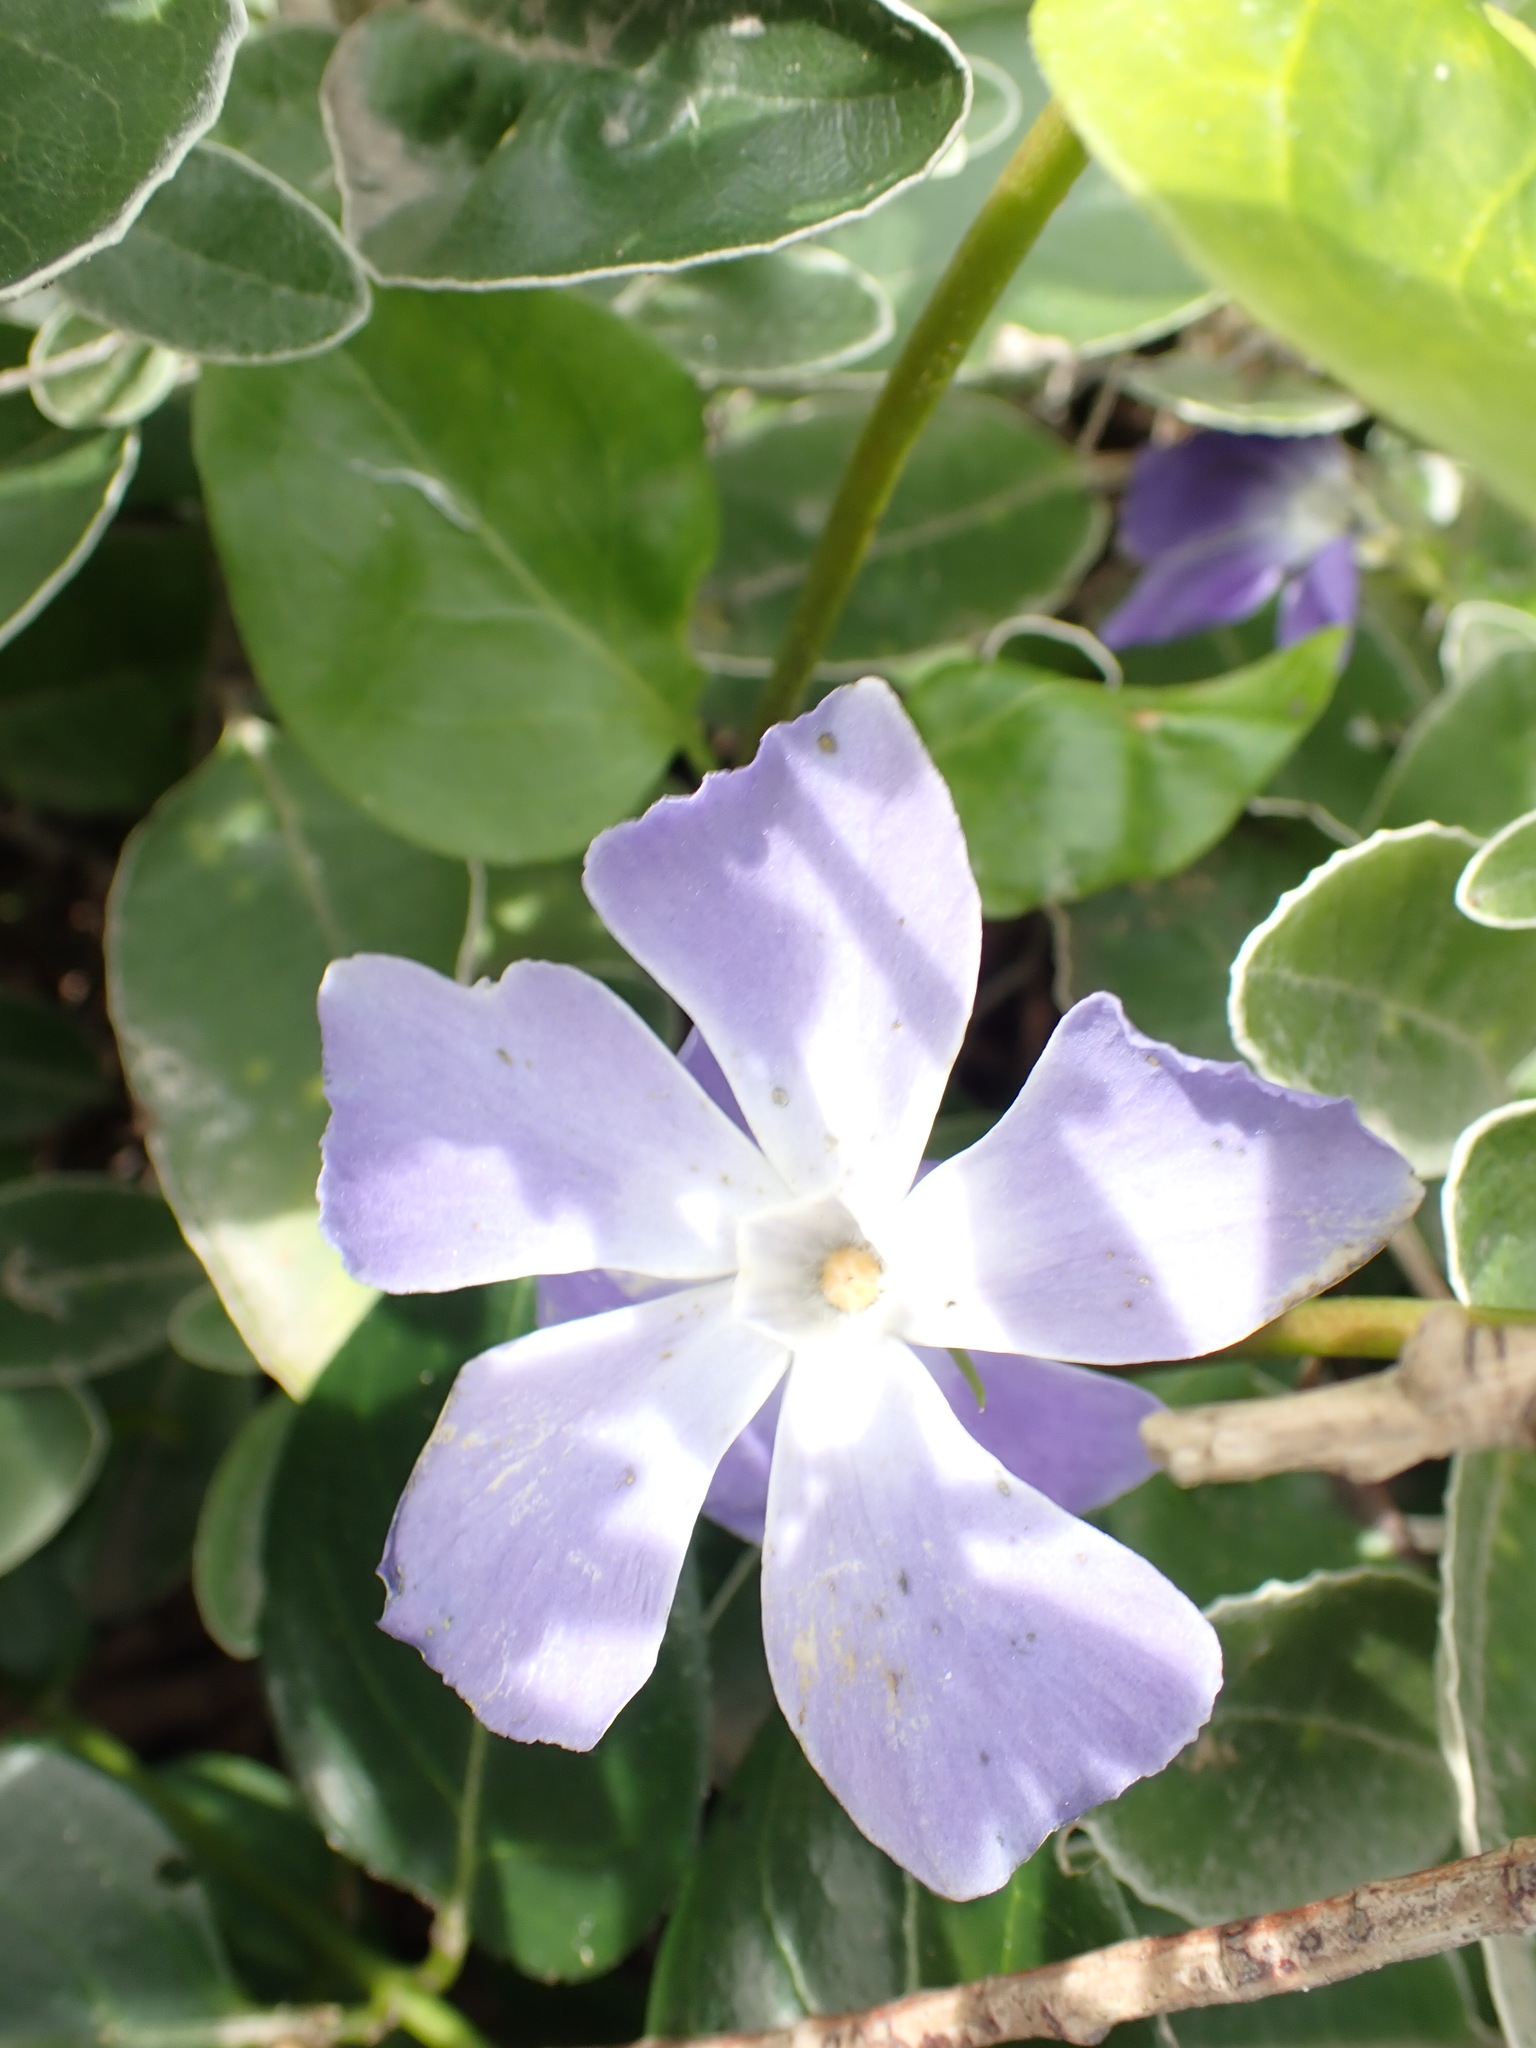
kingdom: Plantae
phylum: Tracheophyta
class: Magnoliopsida
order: Gentianales
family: Apocynaceae
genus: Vinca
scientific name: Vinca major
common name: Greater periwinkle
